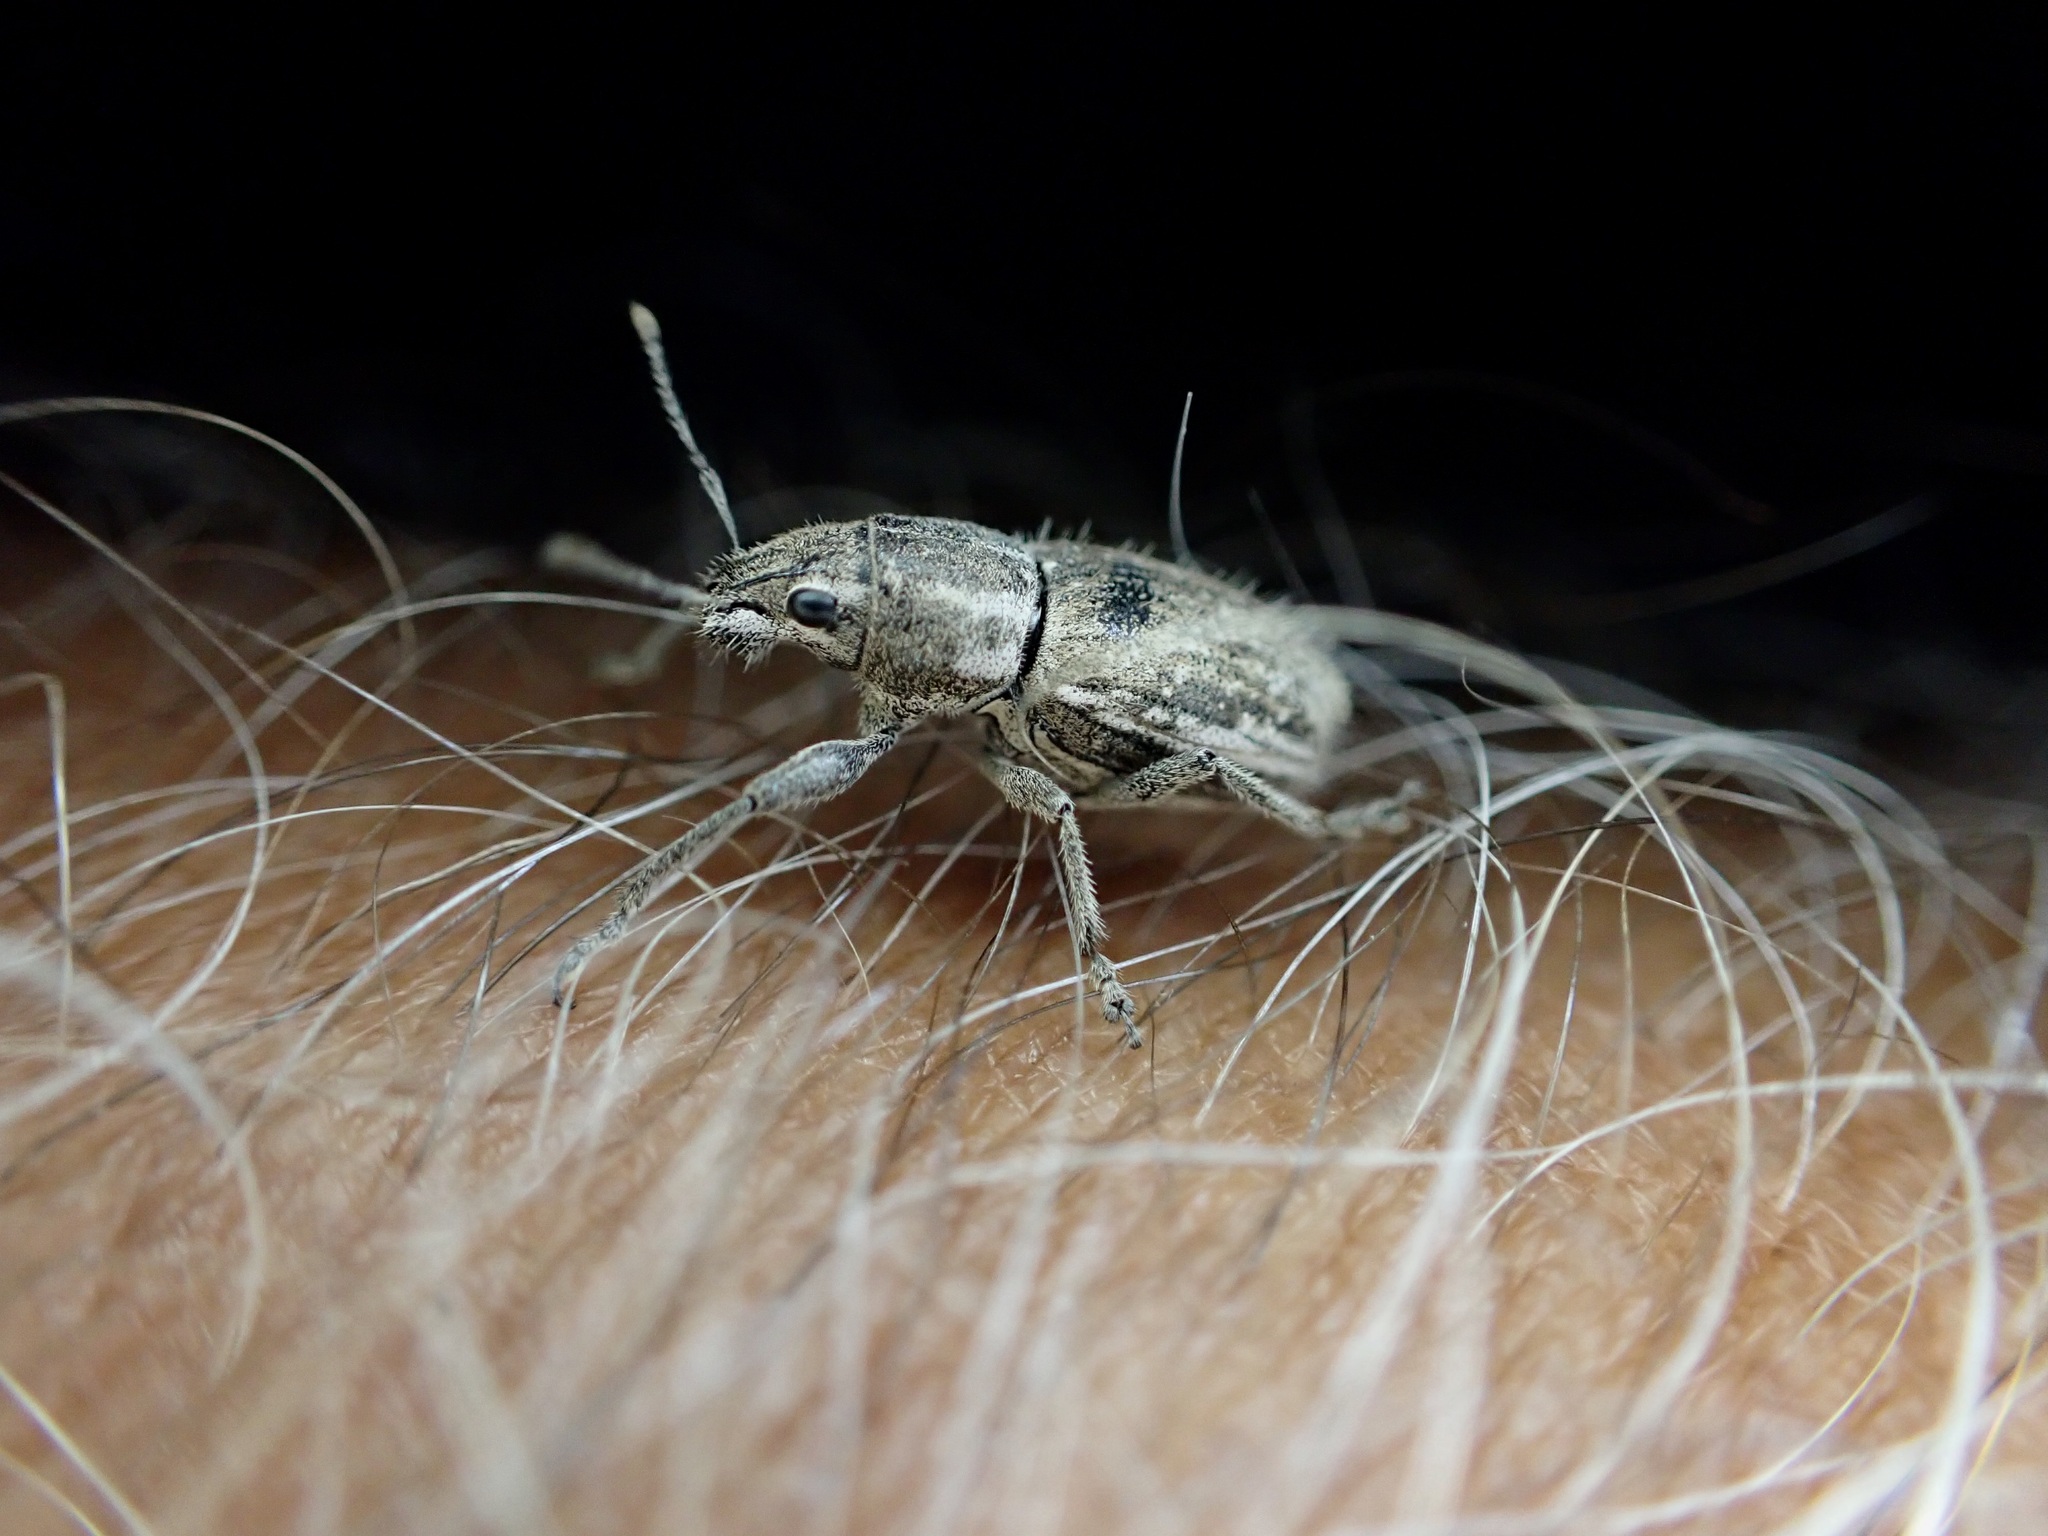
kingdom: Animalia
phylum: Arthropoda
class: Insecta
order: Coleoptera
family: Curculionidae
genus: Naupactus
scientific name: Naupactus leucoloma
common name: Whitefringed beetle
